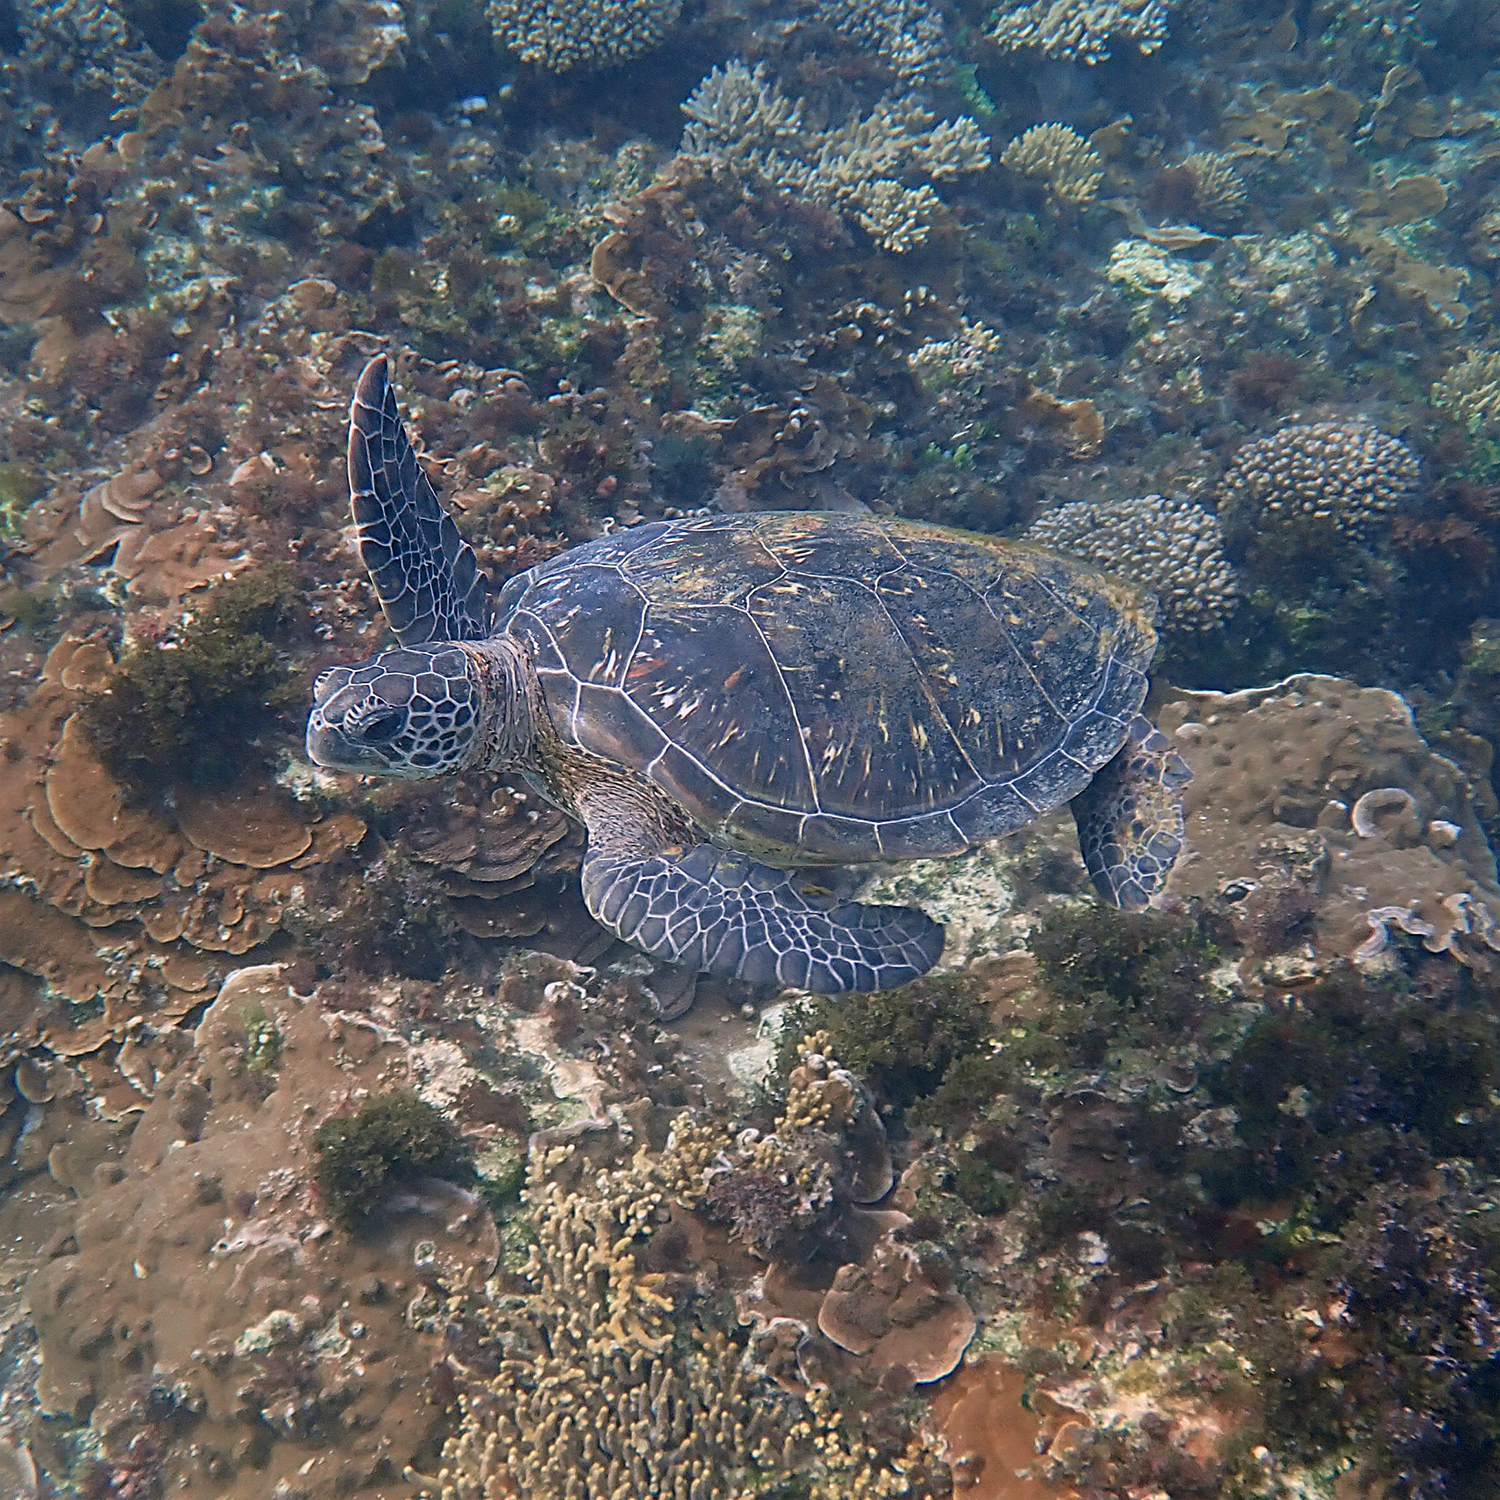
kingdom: Animalia
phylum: Chordata
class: Testudines
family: Cheloniidae
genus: Chelonia
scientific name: Chelonia mydas
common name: Green turtle
